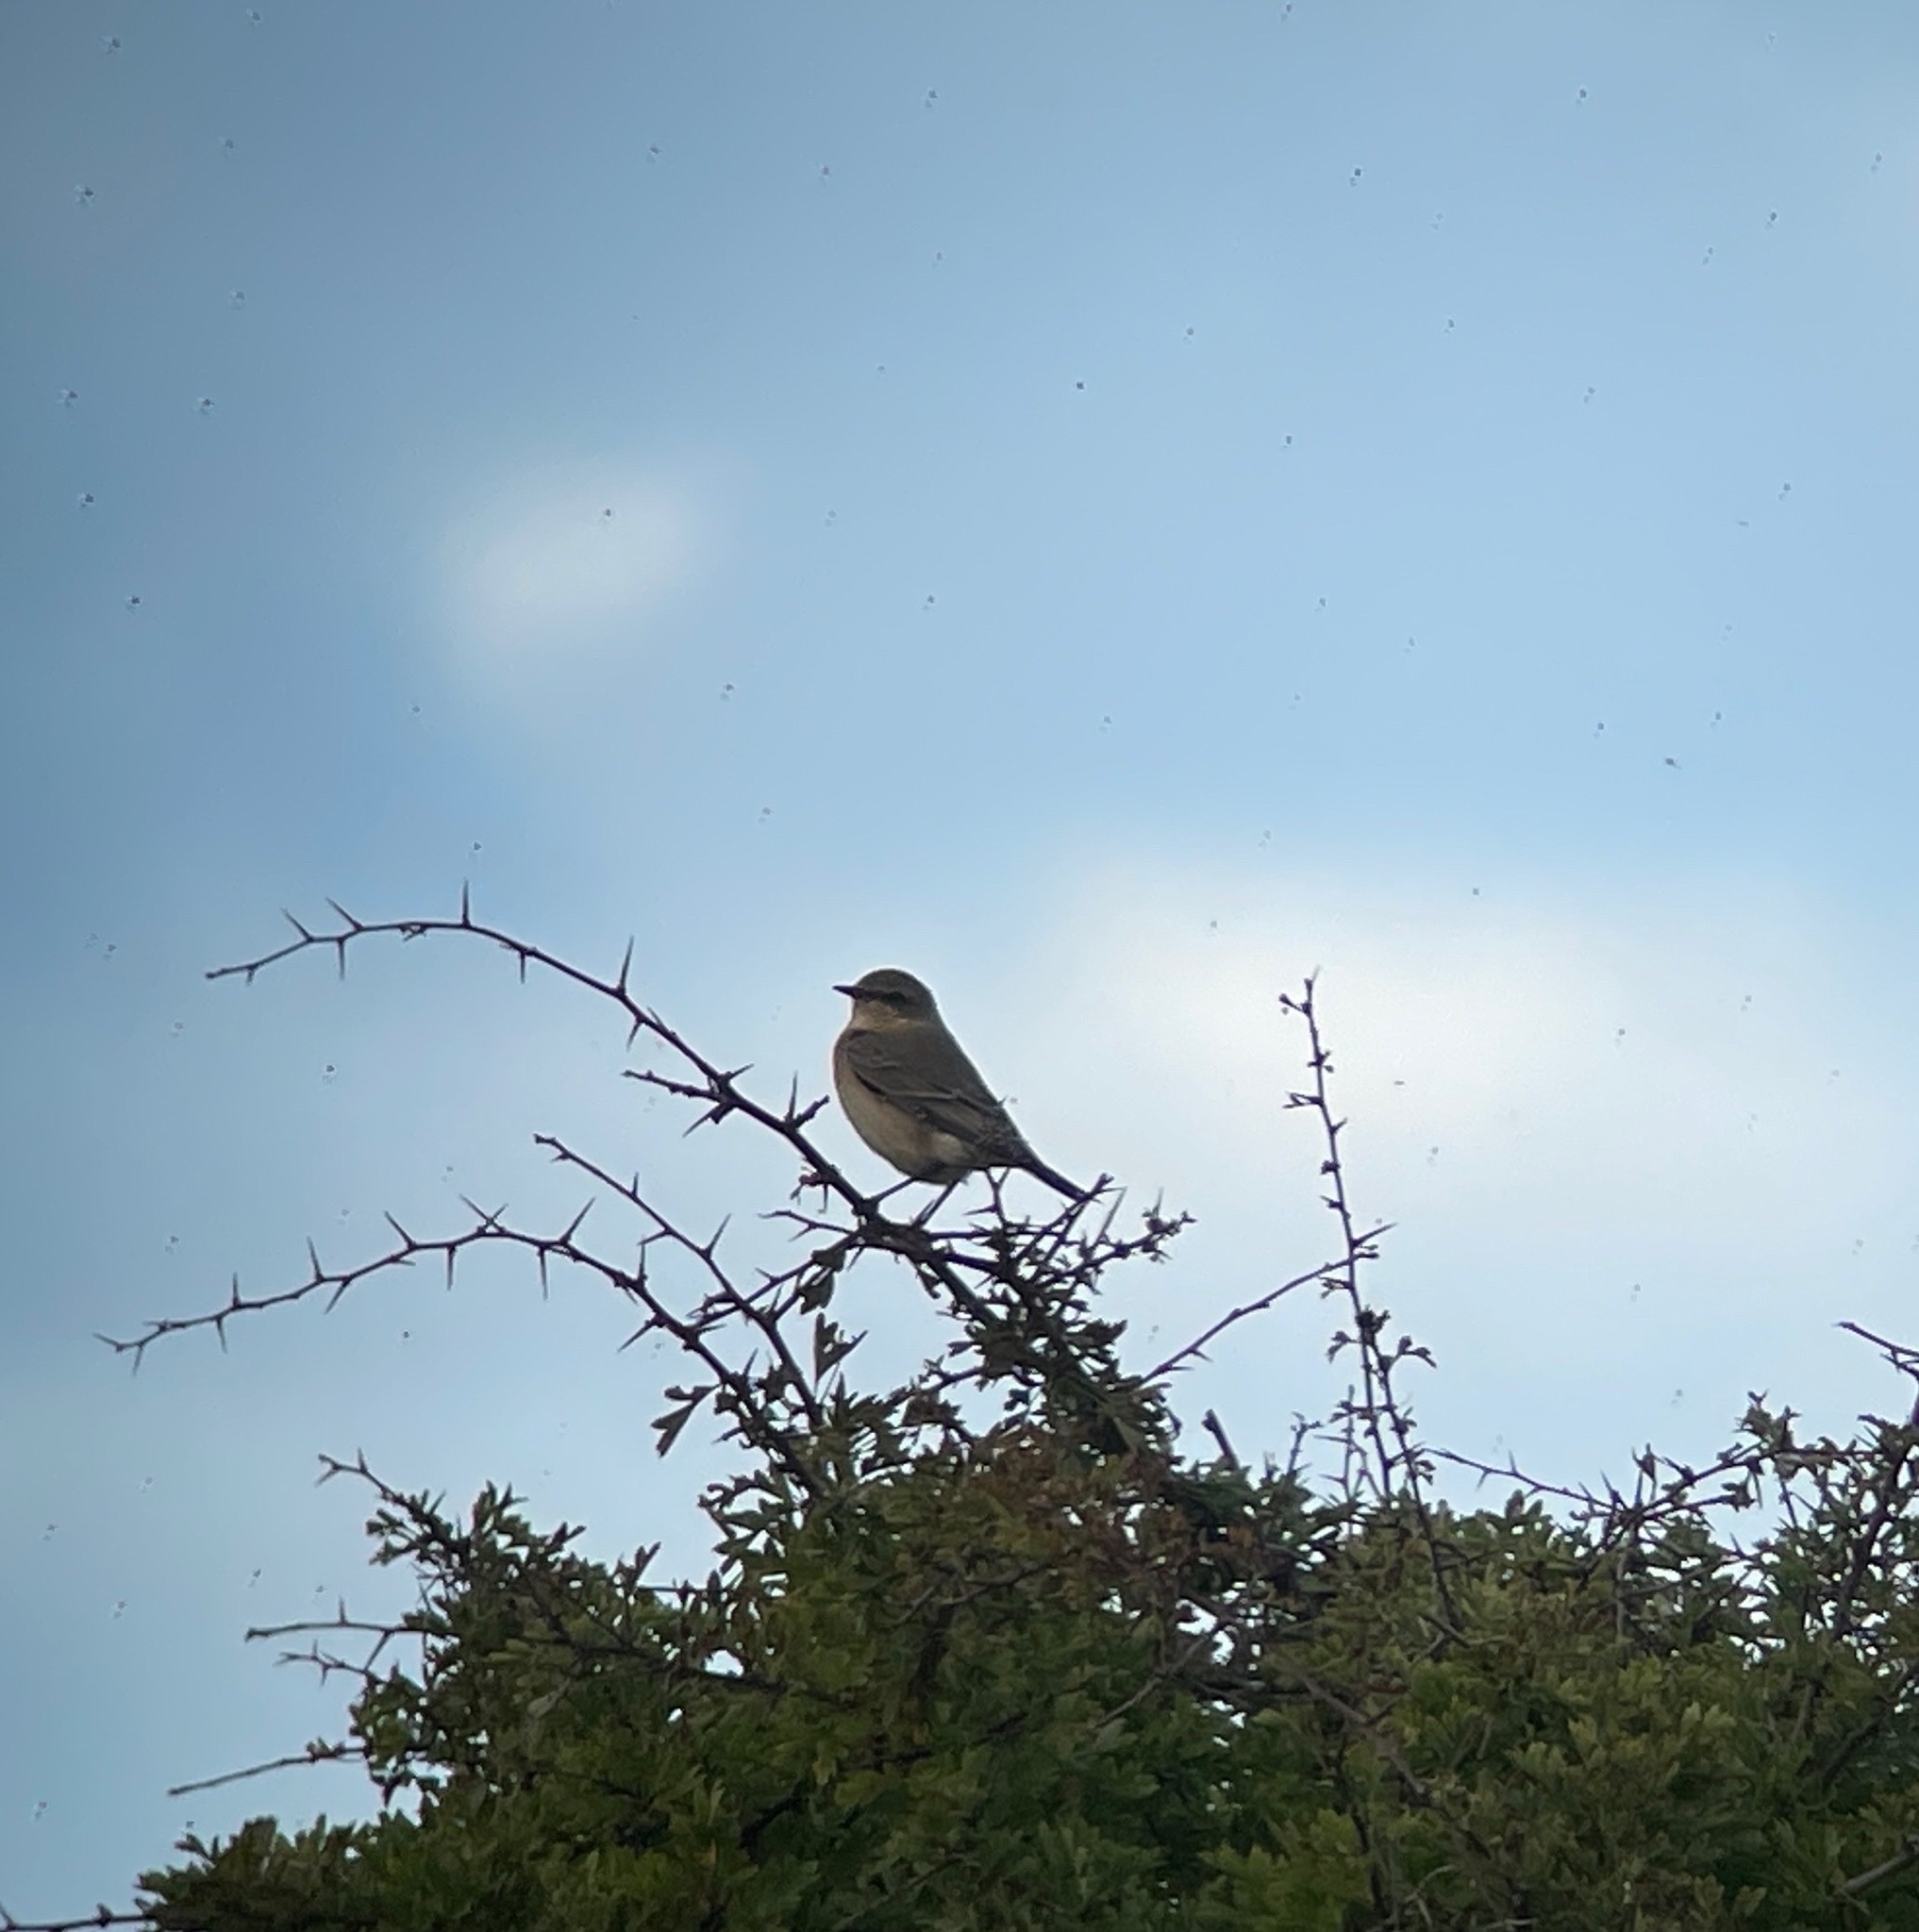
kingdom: Animalia
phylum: Chordata
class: Aves
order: Passeriformes
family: Muscicapidae
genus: Oenanthe
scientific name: Oenanthe oenanthe
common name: Northern wheatear
